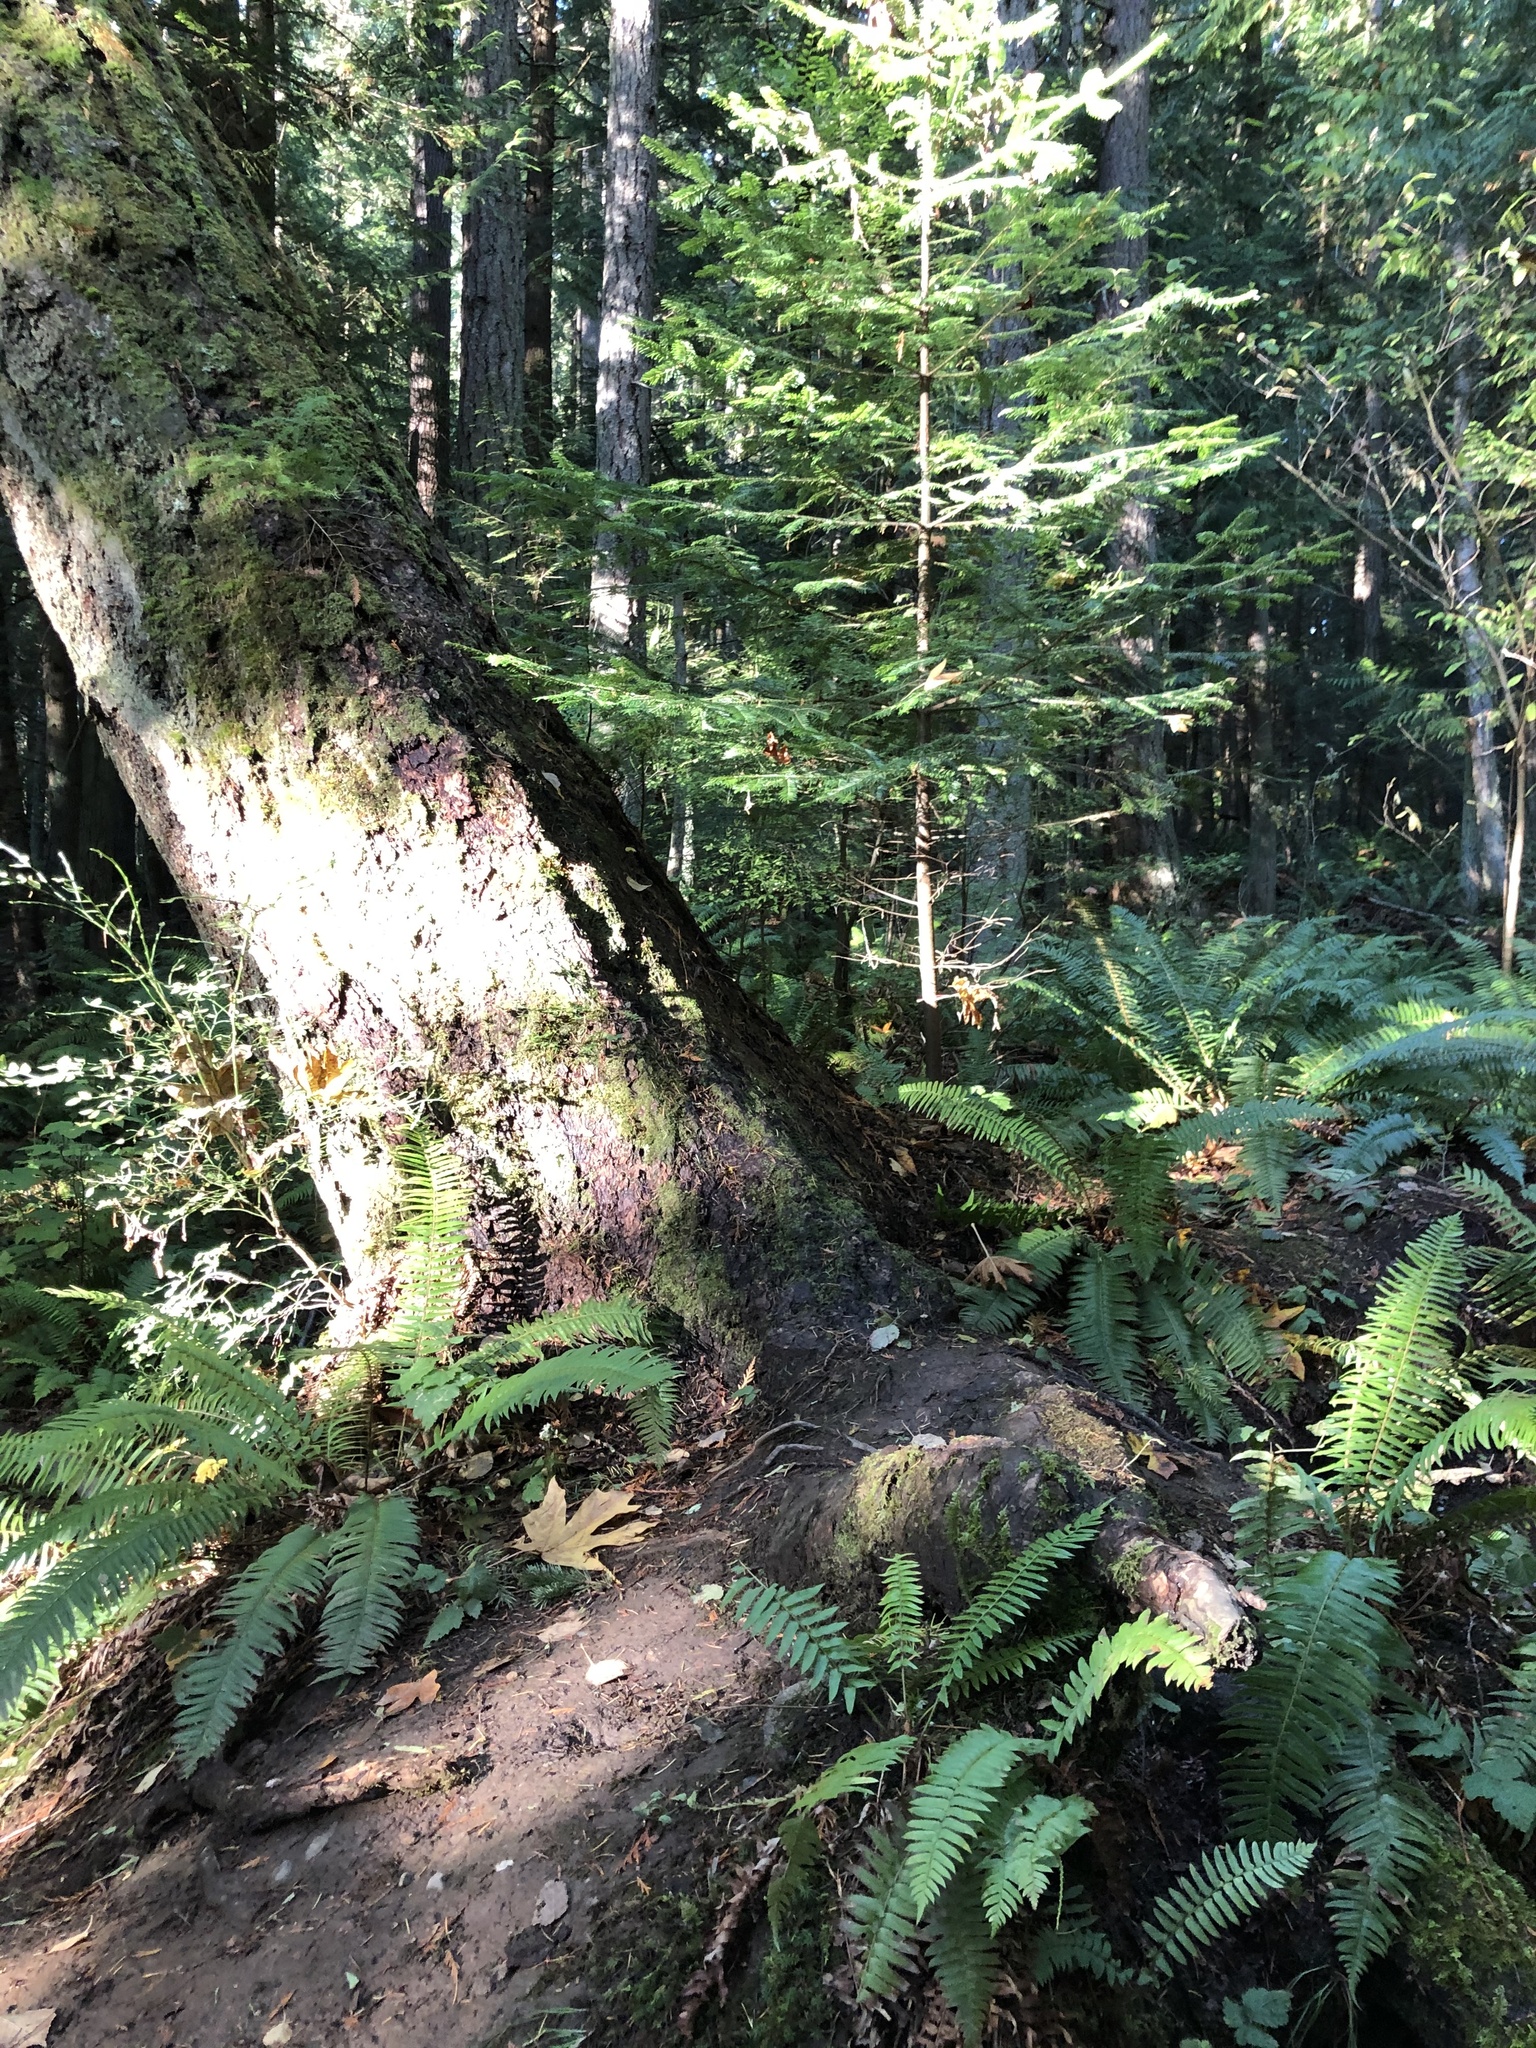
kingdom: Plantae
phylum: Tracheophyta
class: Polypodiopsida
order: Polypodiales
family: Dryopteridaceae
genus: Polystichum
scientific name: Polystichum munitum
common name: Western sword-fern
